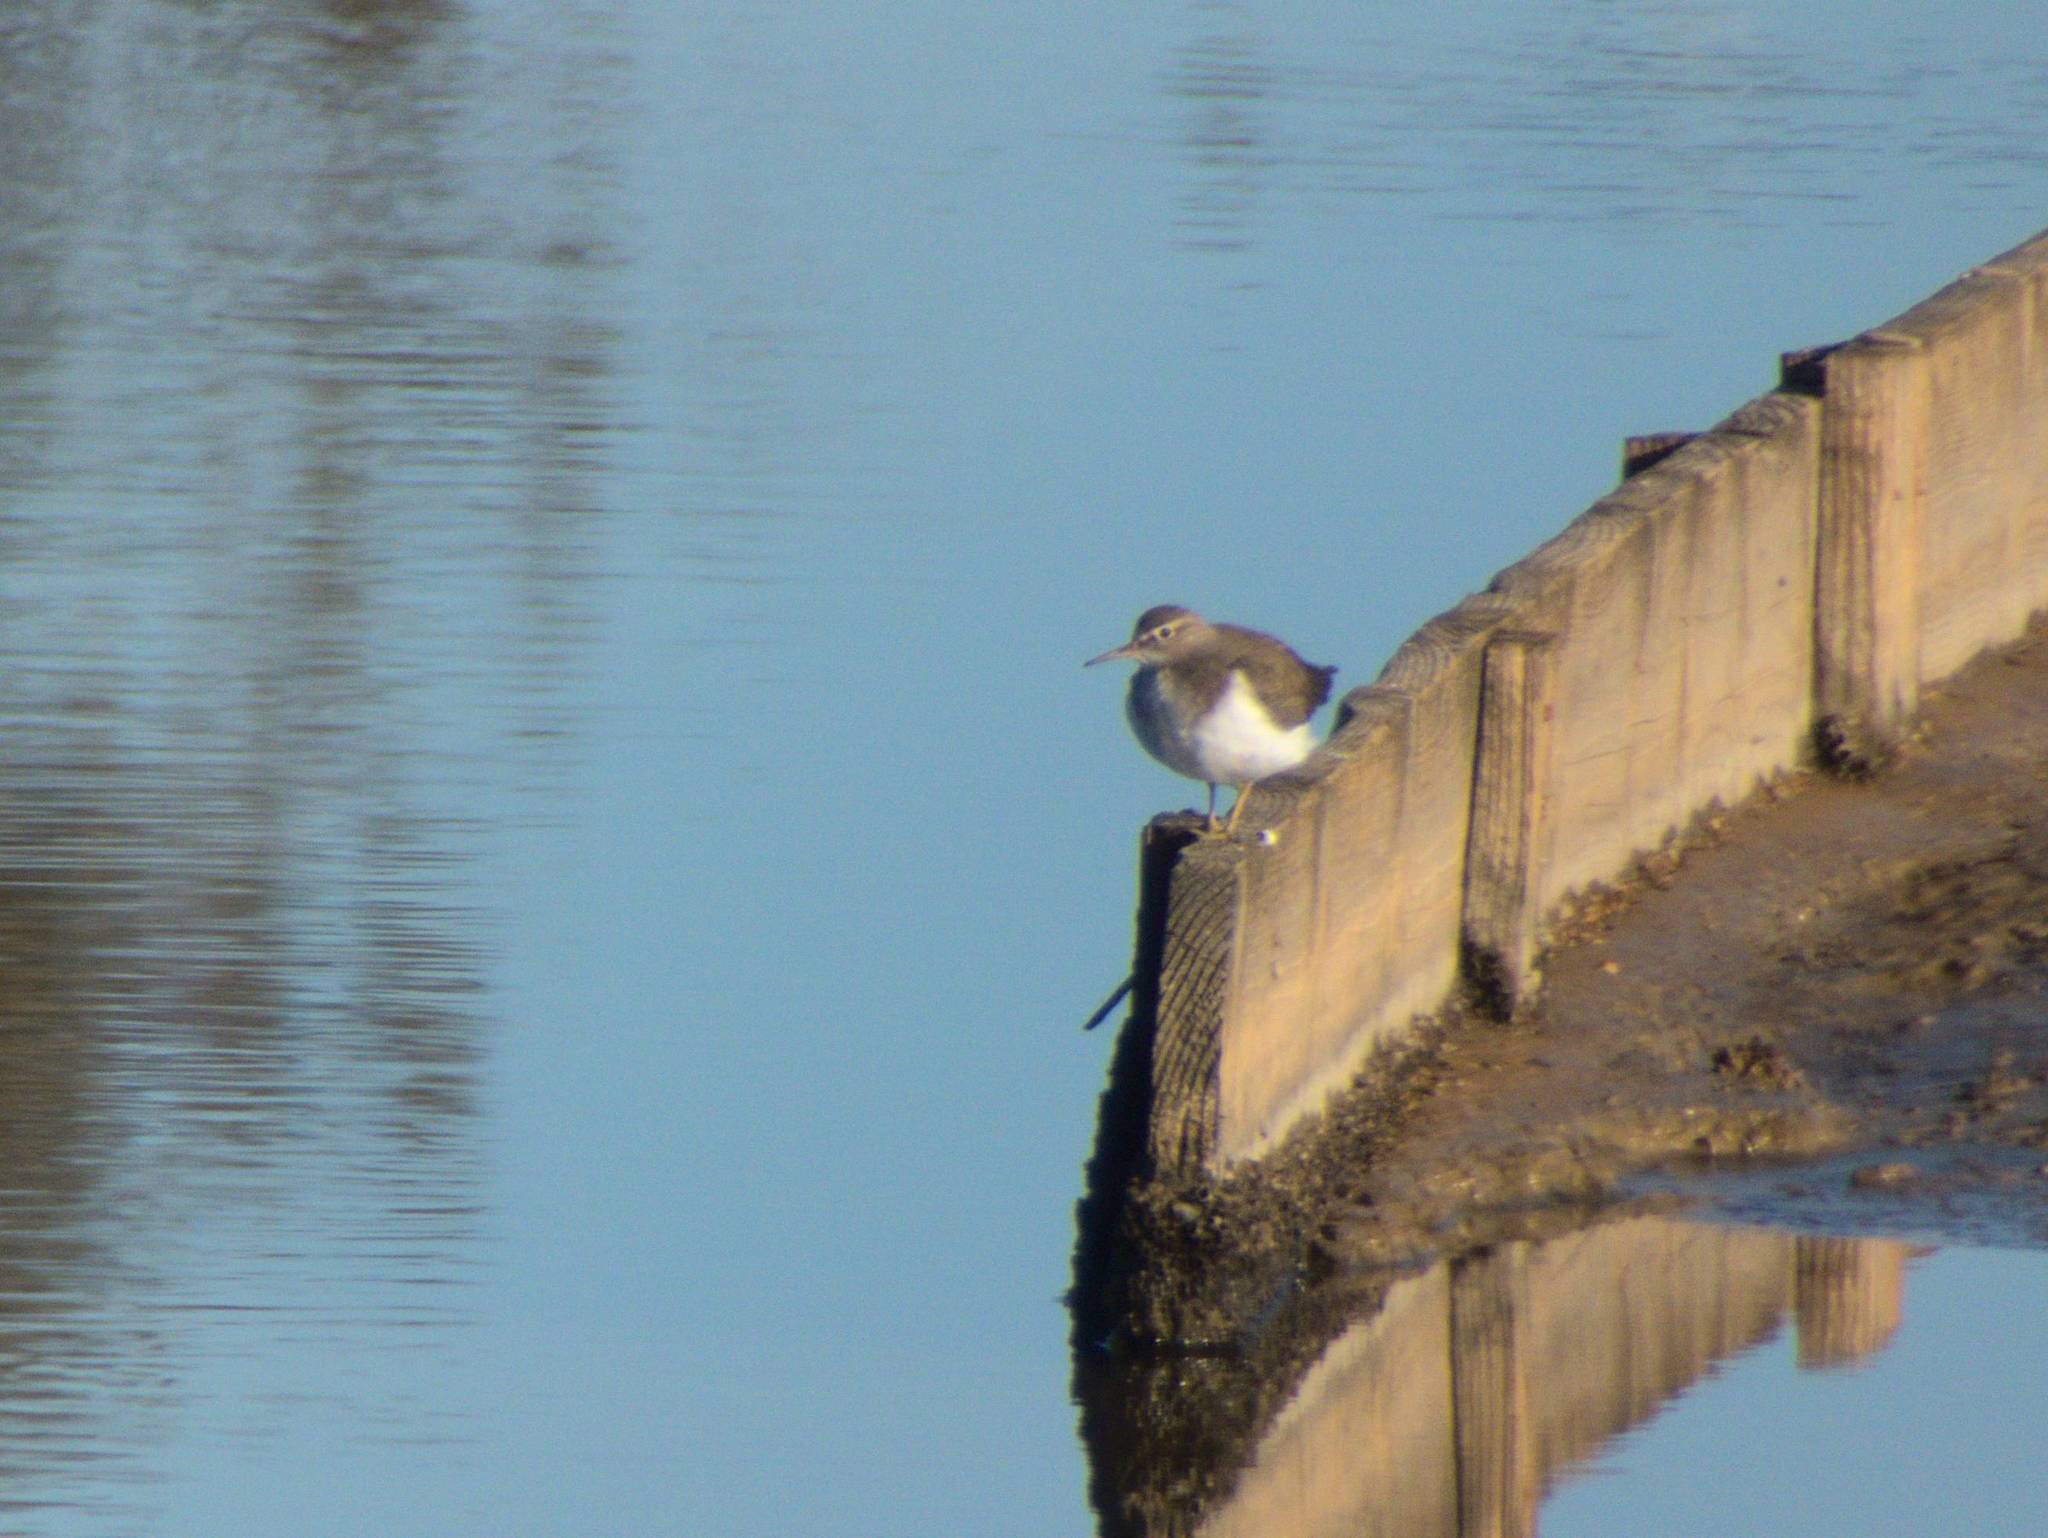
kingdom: Animalia
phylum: Chordata
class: Aves
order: Charadriiformes
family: Scolopacidae
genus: Actitis
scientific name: Actitis hypoleucos
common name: Common sandpiper
